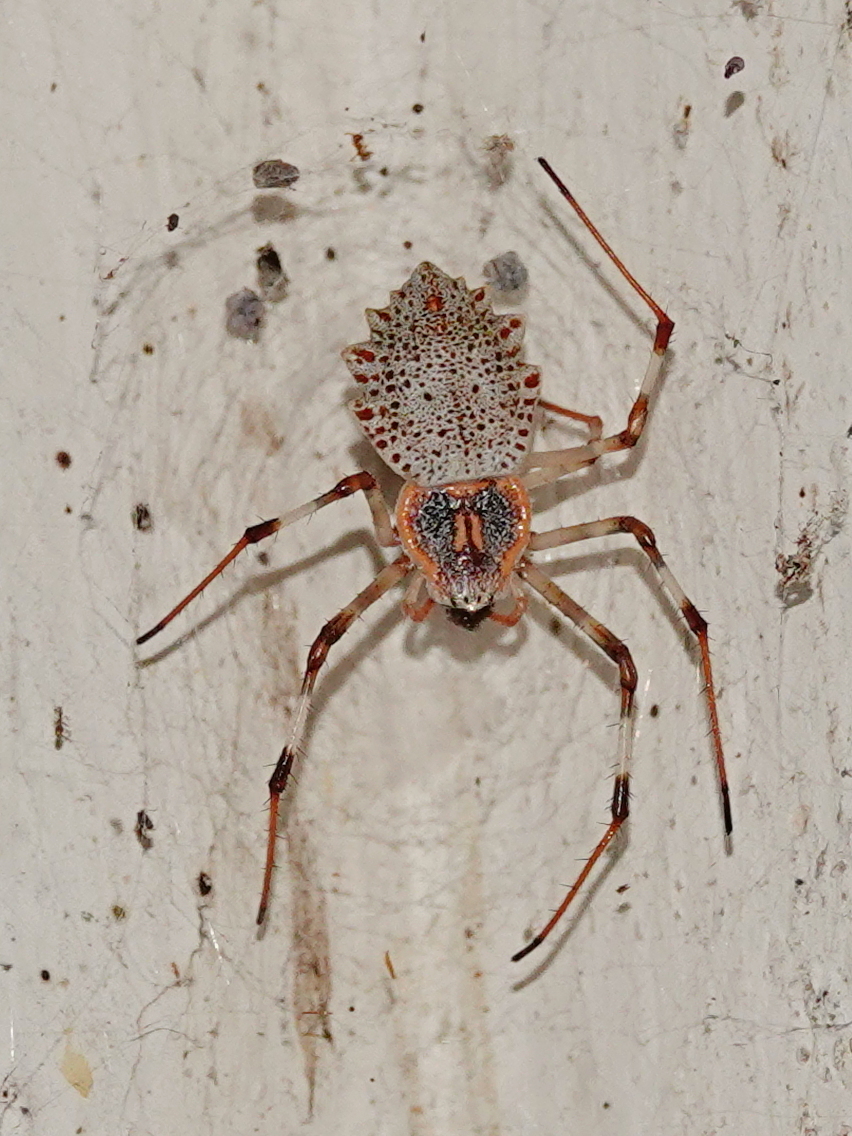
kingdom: Animalia
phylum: Arthropoda
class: Arachnida
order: Araneae
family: Araneidae
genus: Herennia
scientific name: Herennia multipuncta
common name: Spotted coin spider
